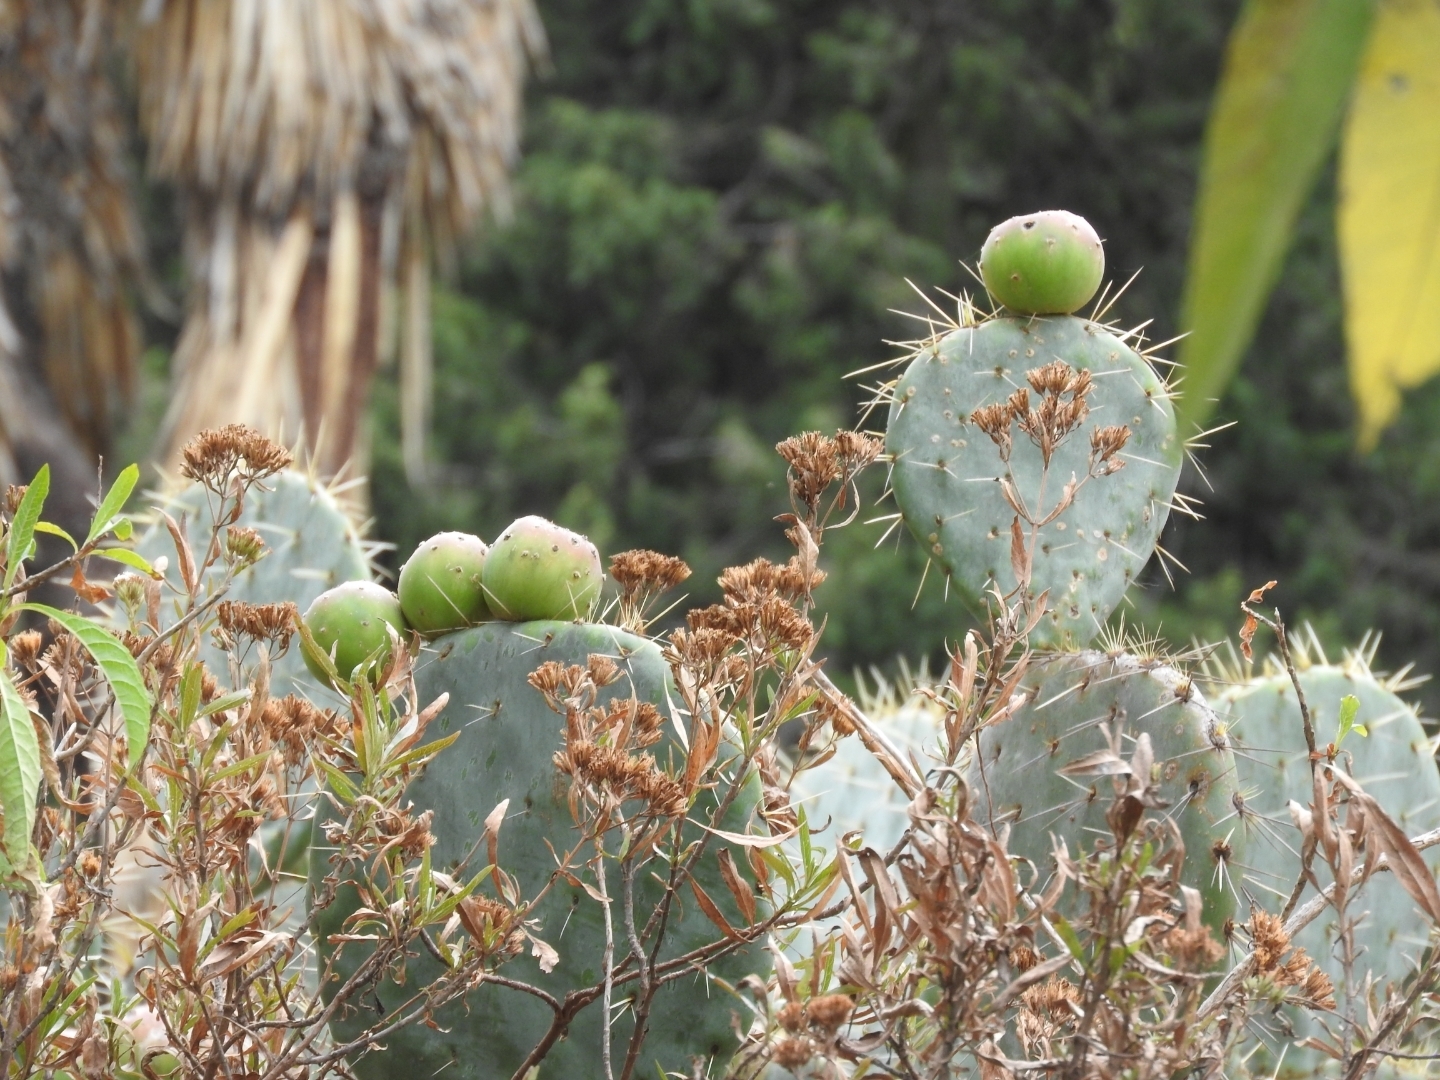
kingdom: Plantae
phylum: Tracheophyta
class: Magnoliopsida
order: Caryophyllales
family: Cactaceae
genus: Opuntia
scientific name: Opuntia robusta
